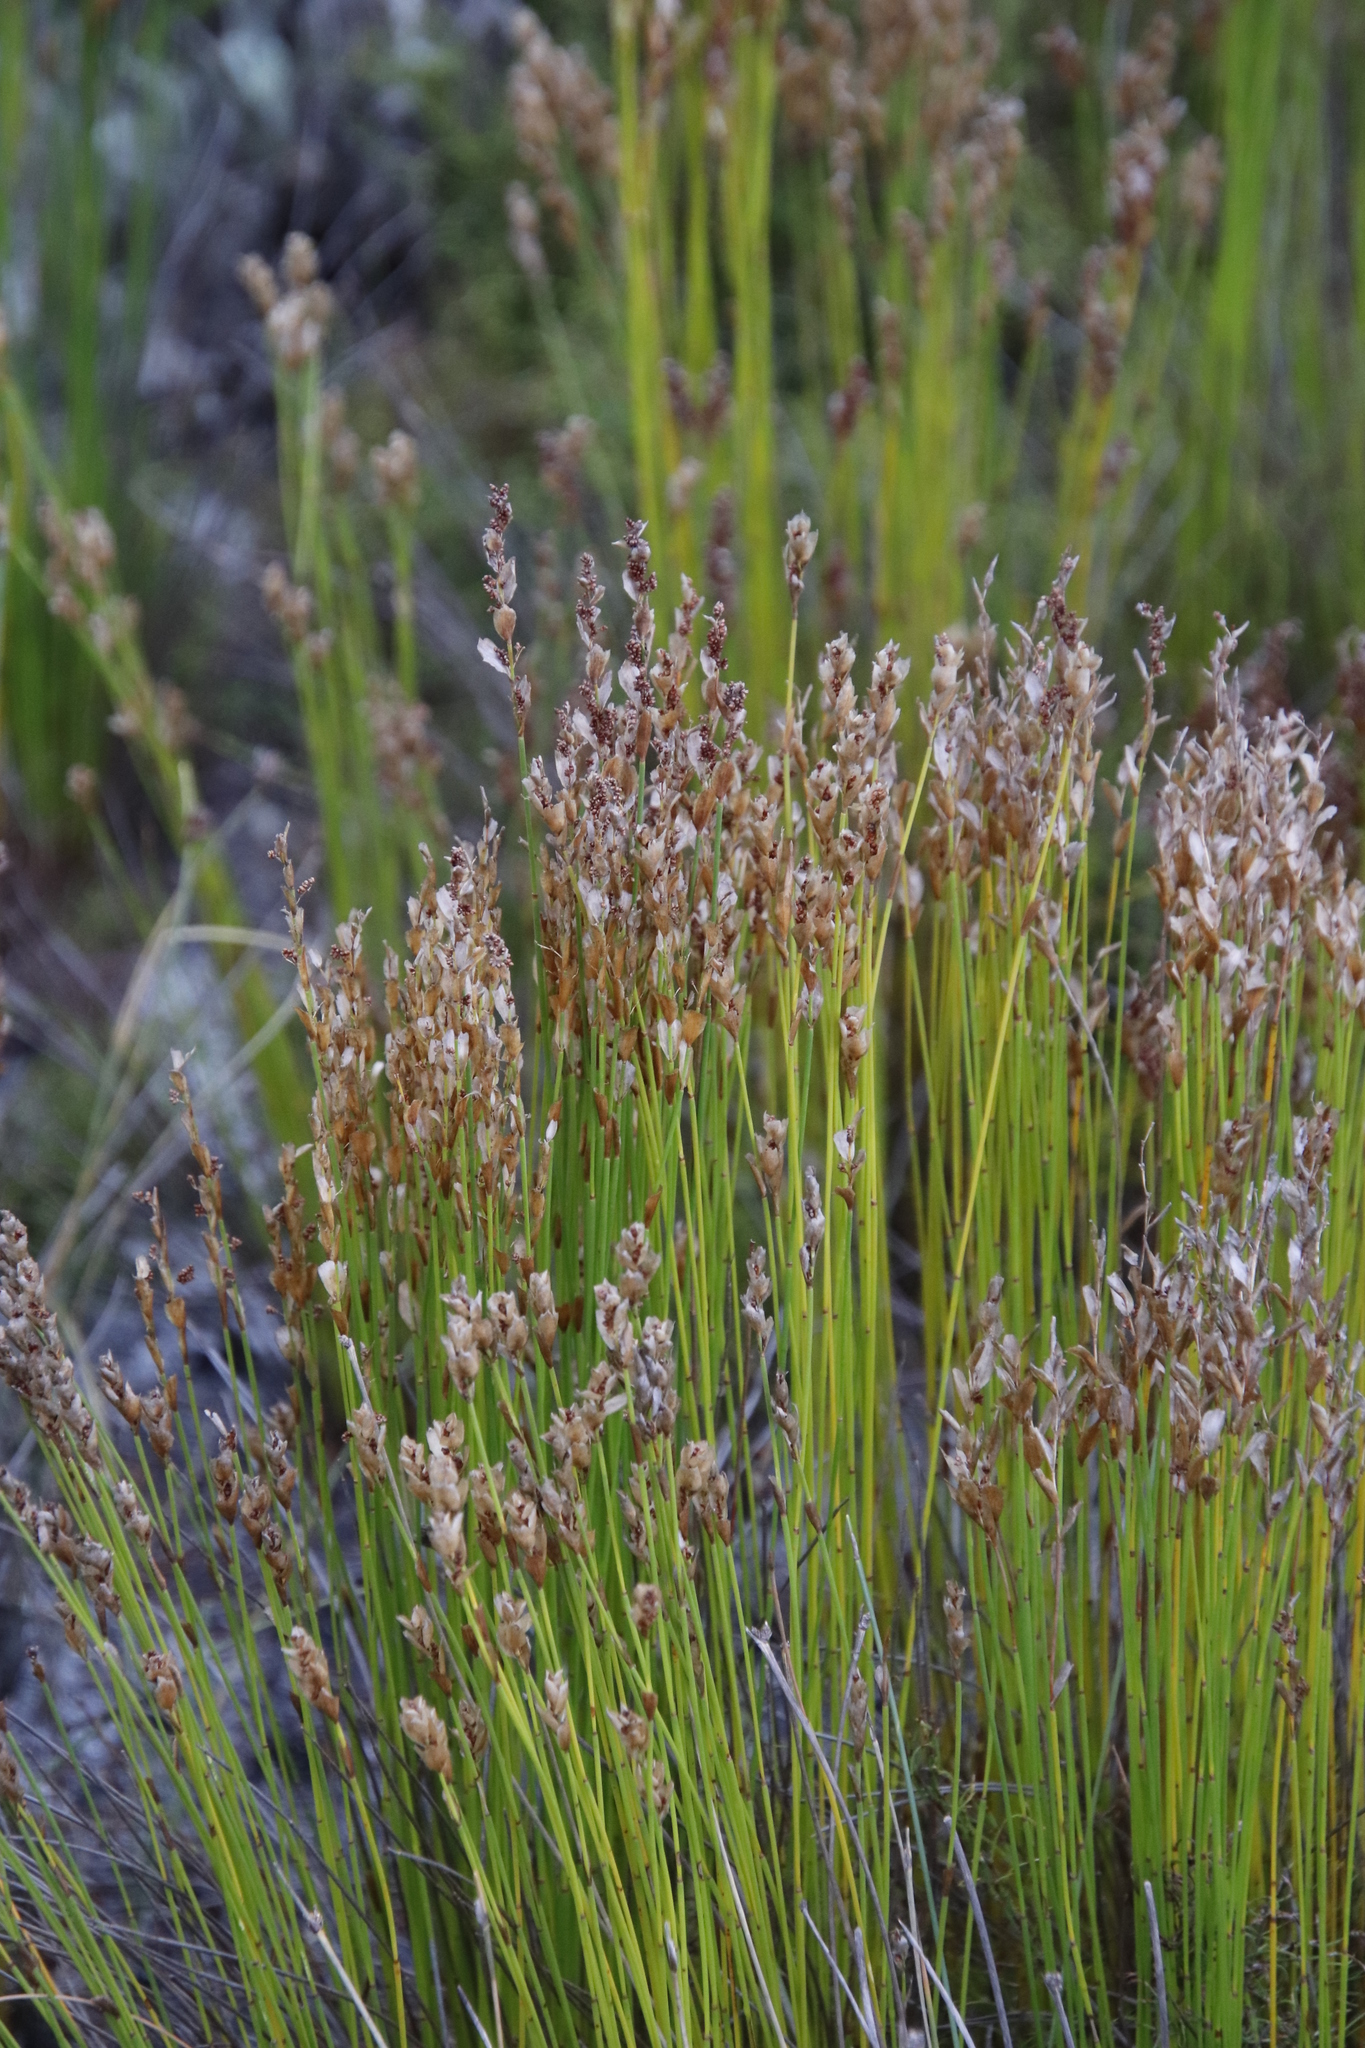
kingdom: Plantae
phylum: Tracheophyta
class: Liliopsida
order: Poales
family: Restionaceae
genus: Elegia
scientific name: Elegia filacea
